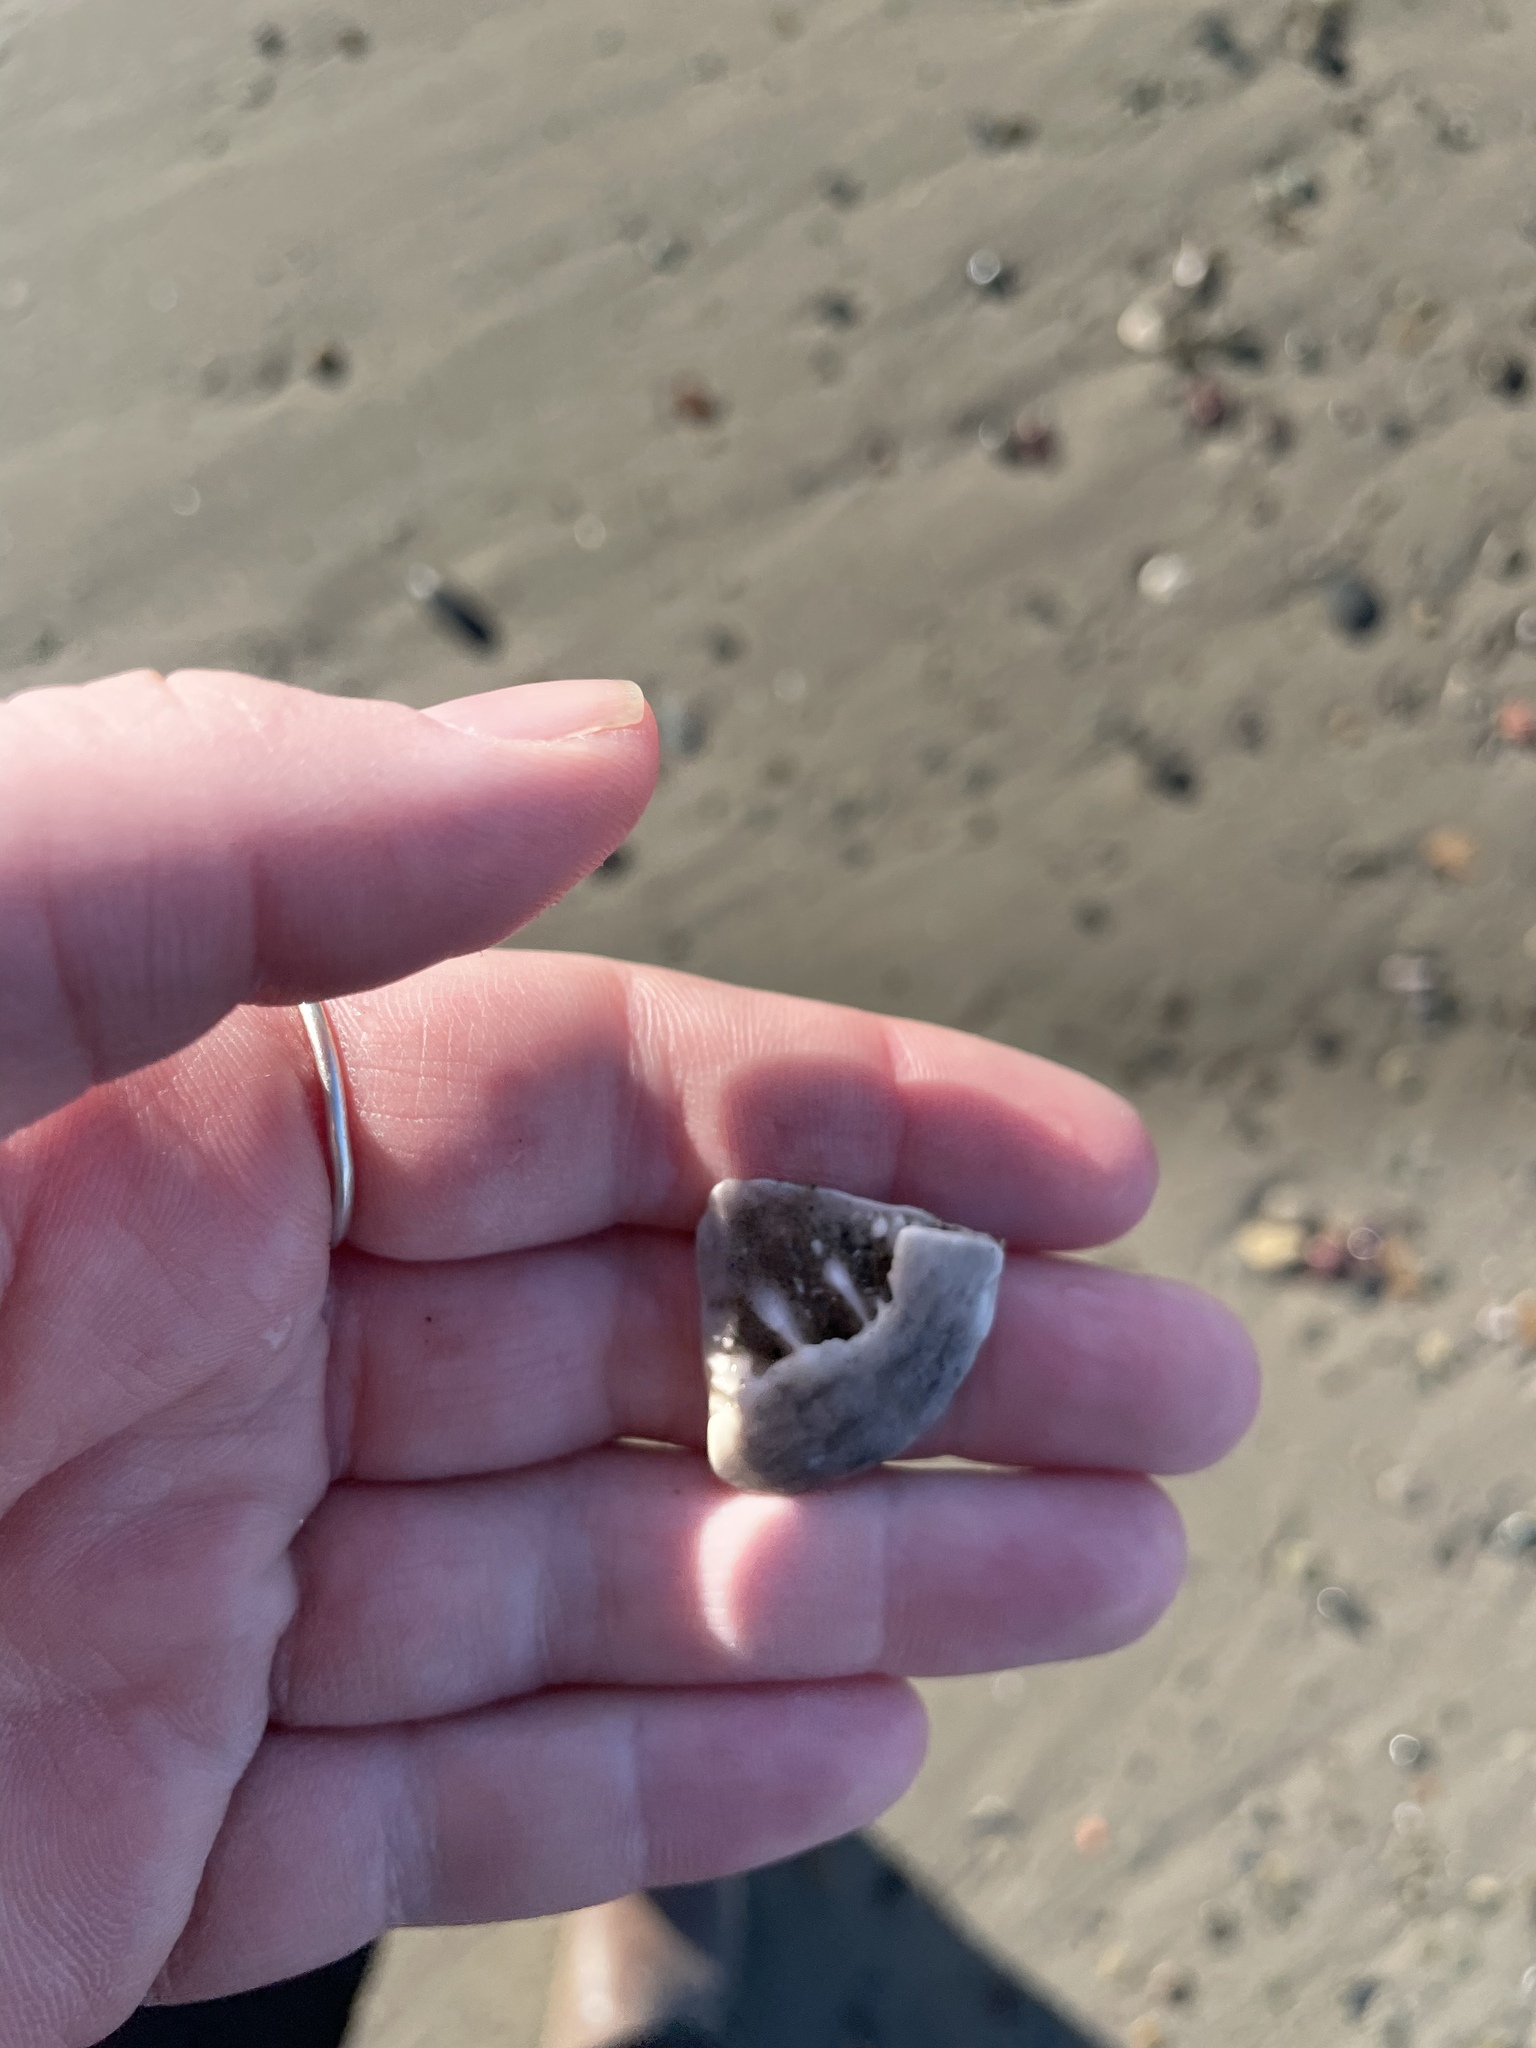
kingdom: Animalia
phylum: Echinodermata
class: Echinoidea
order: Echinolampadacea
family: Echinarachniidae
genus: Echinarachnius
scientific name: Echinarachnius parma
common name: Common sand dollar
